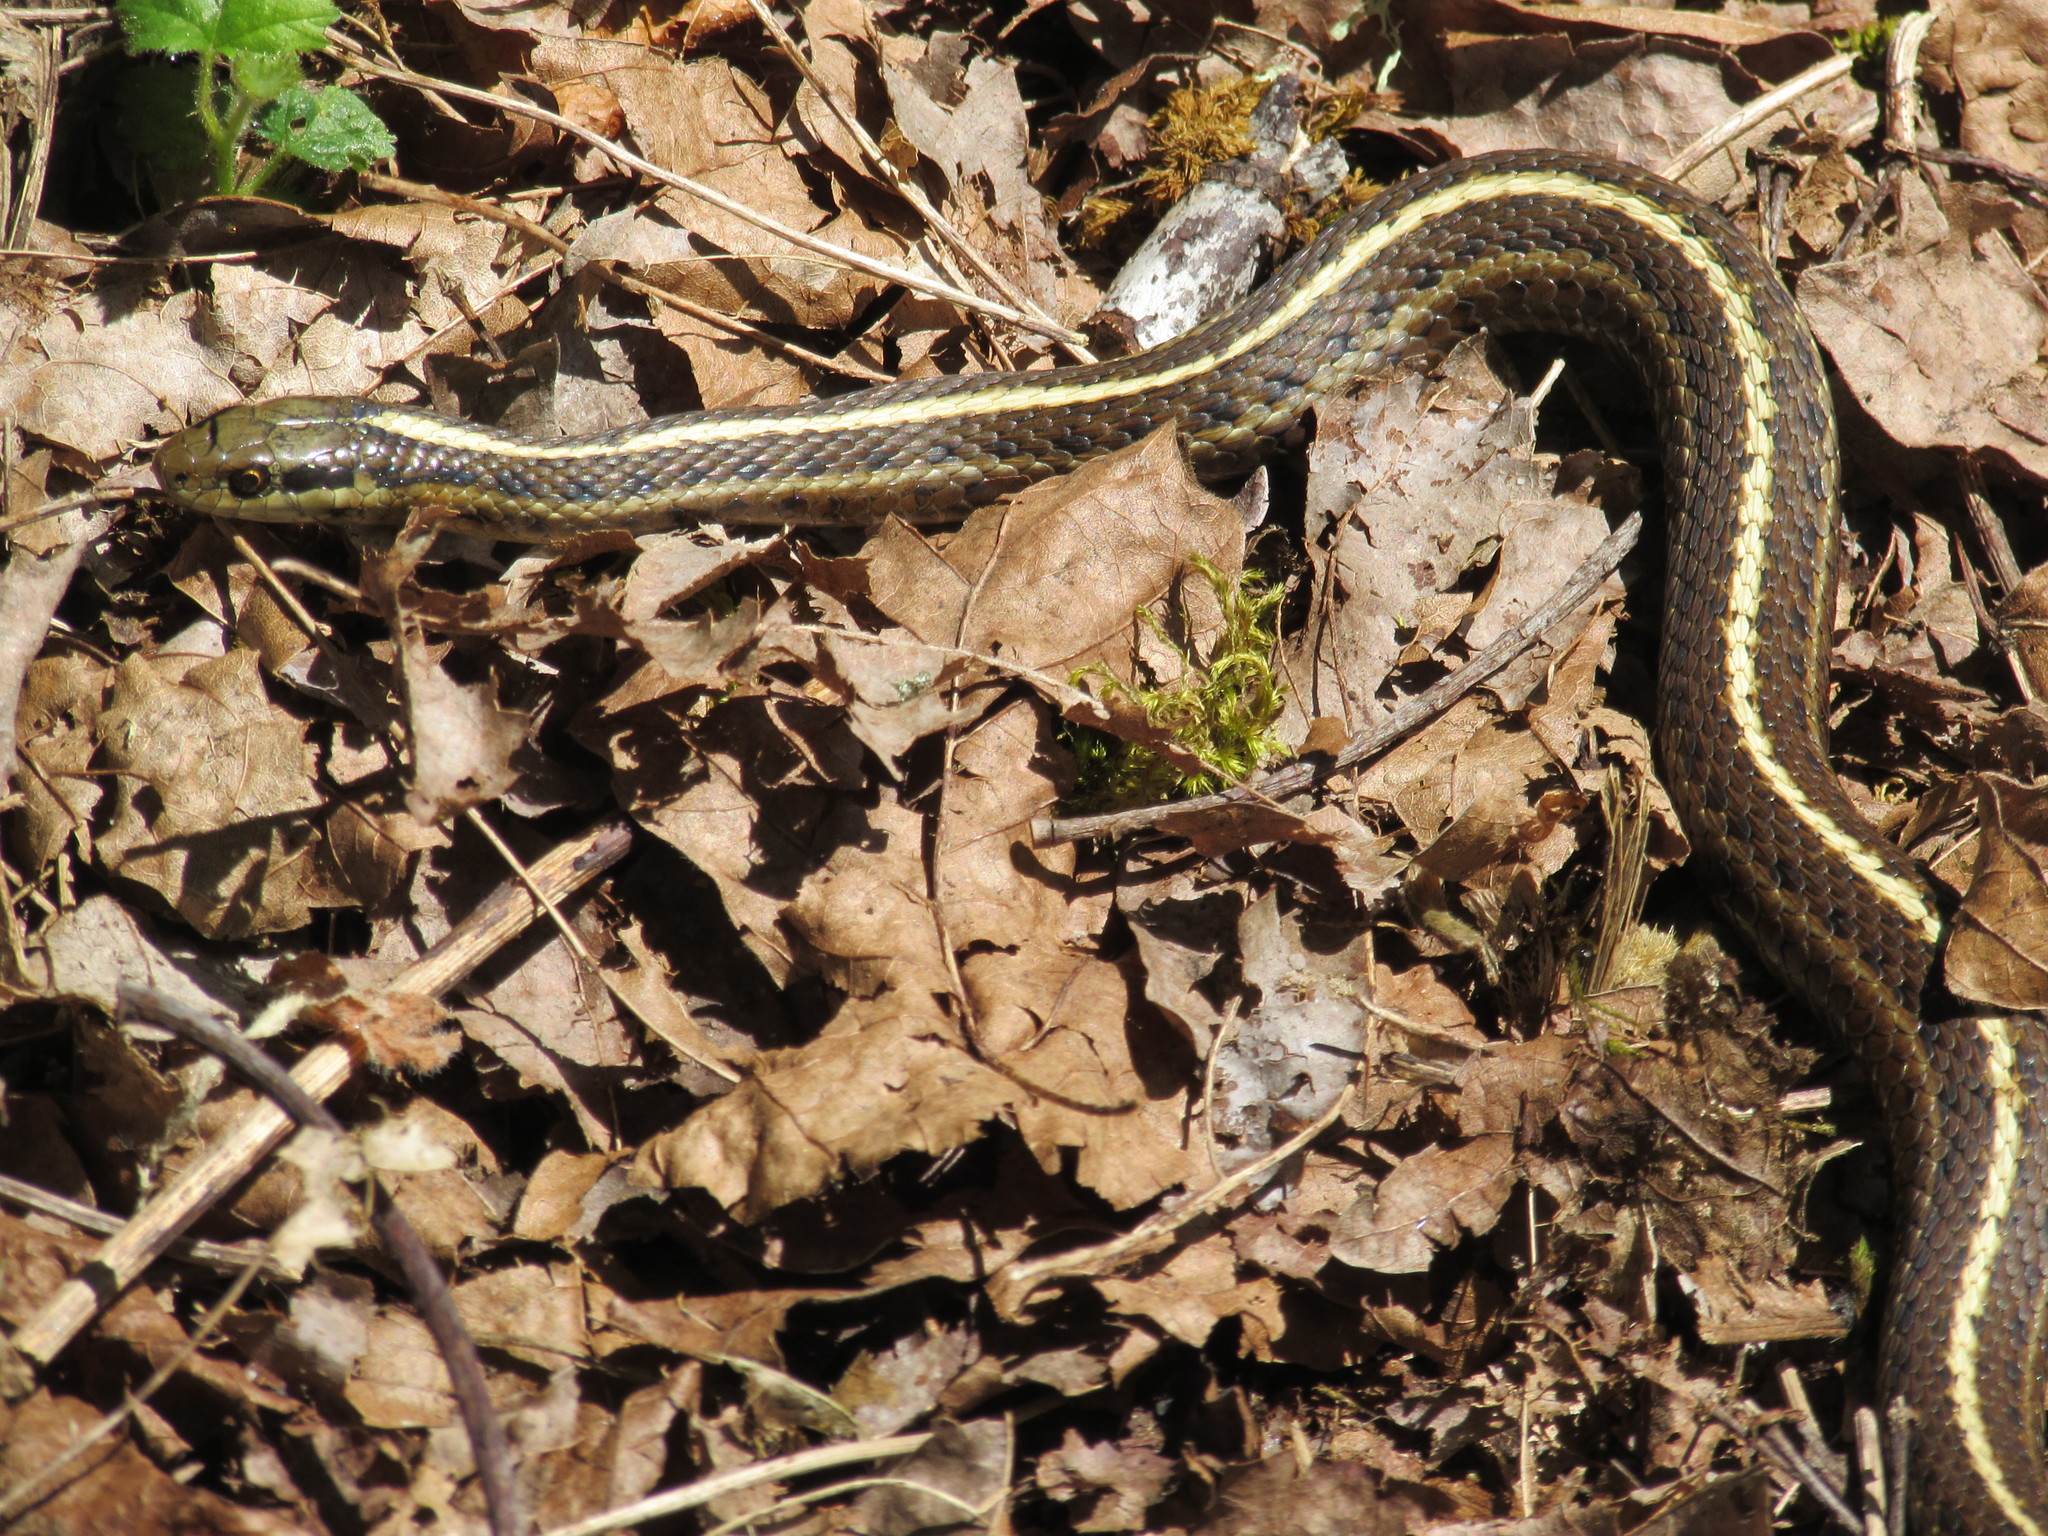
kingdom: Animalia
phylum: Chordata
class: Squamata
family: Colubridae
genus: Thamnophis
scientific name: Thamnophis ordinoides
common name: Northwestern garter snake
